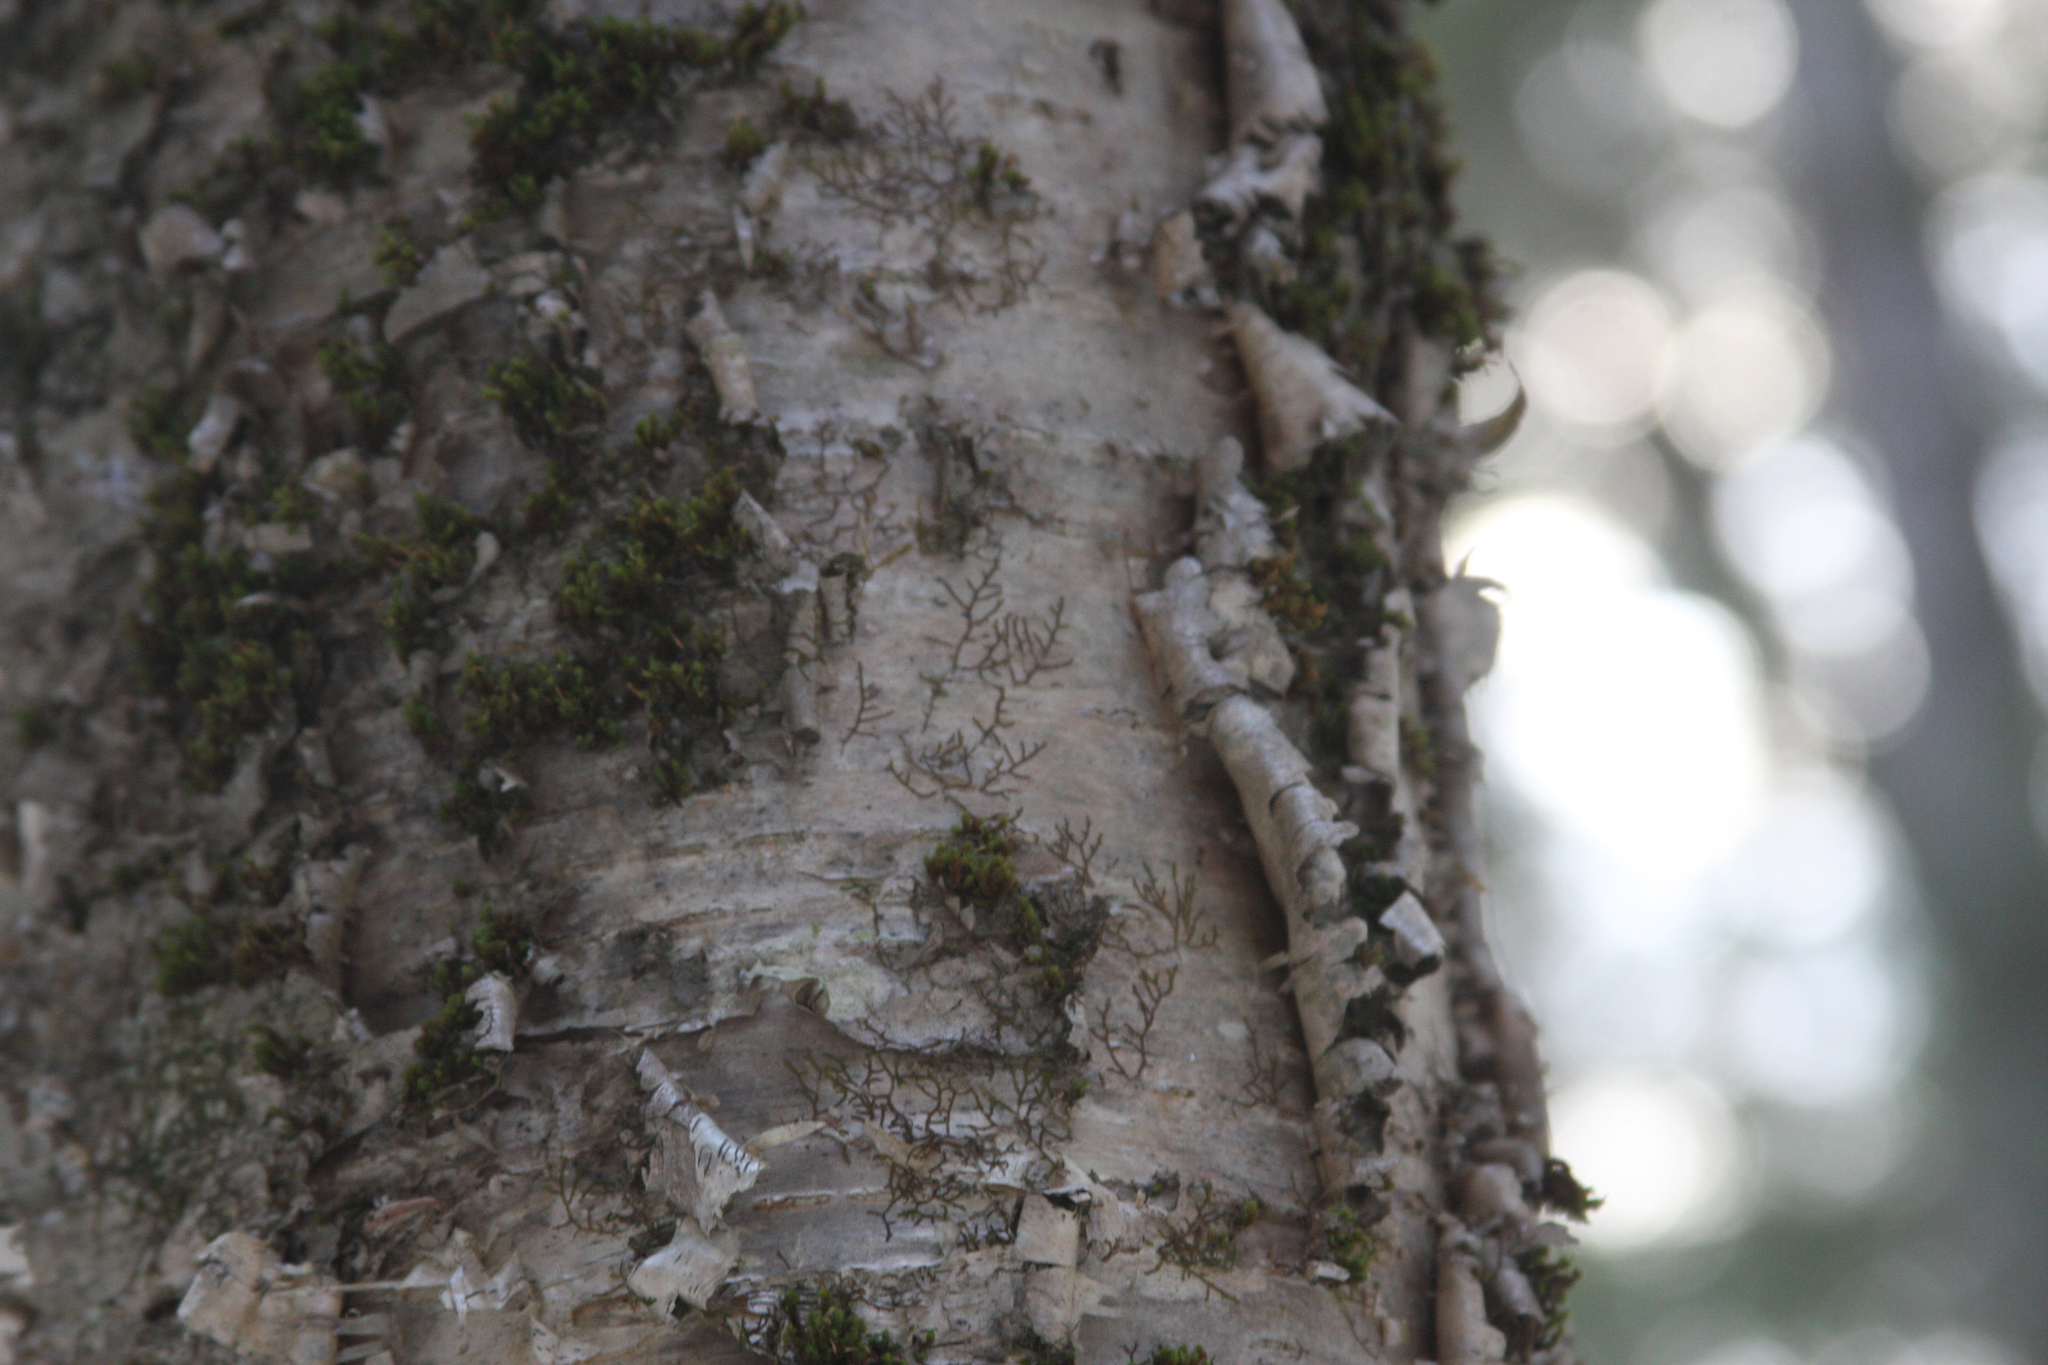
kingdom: Plantae
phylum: Marchantiophyta
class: Jungermanniopsida
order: Porellales
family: Frullaniaceae
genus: Frullania
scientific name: Frullania eboracensis
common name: New york scalewort
